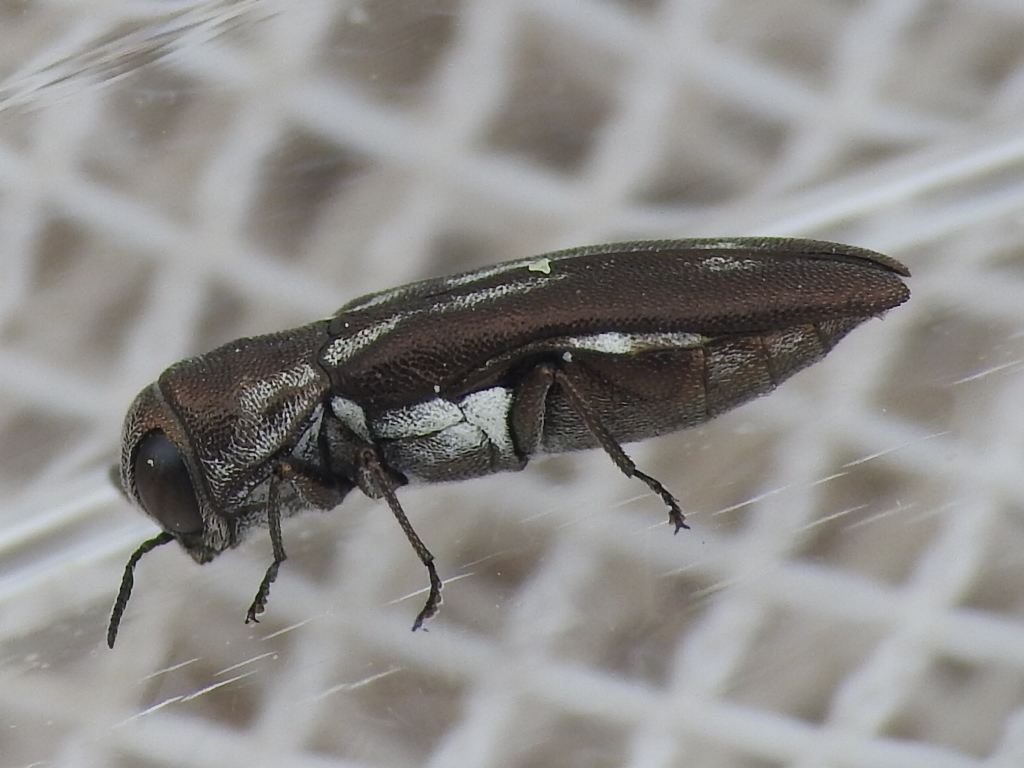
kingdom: Animalia
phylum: Arthropoda
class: Insecta
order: Coleoptera
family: Buprestidae
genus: Agrilus
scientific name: Agrilus addendus
